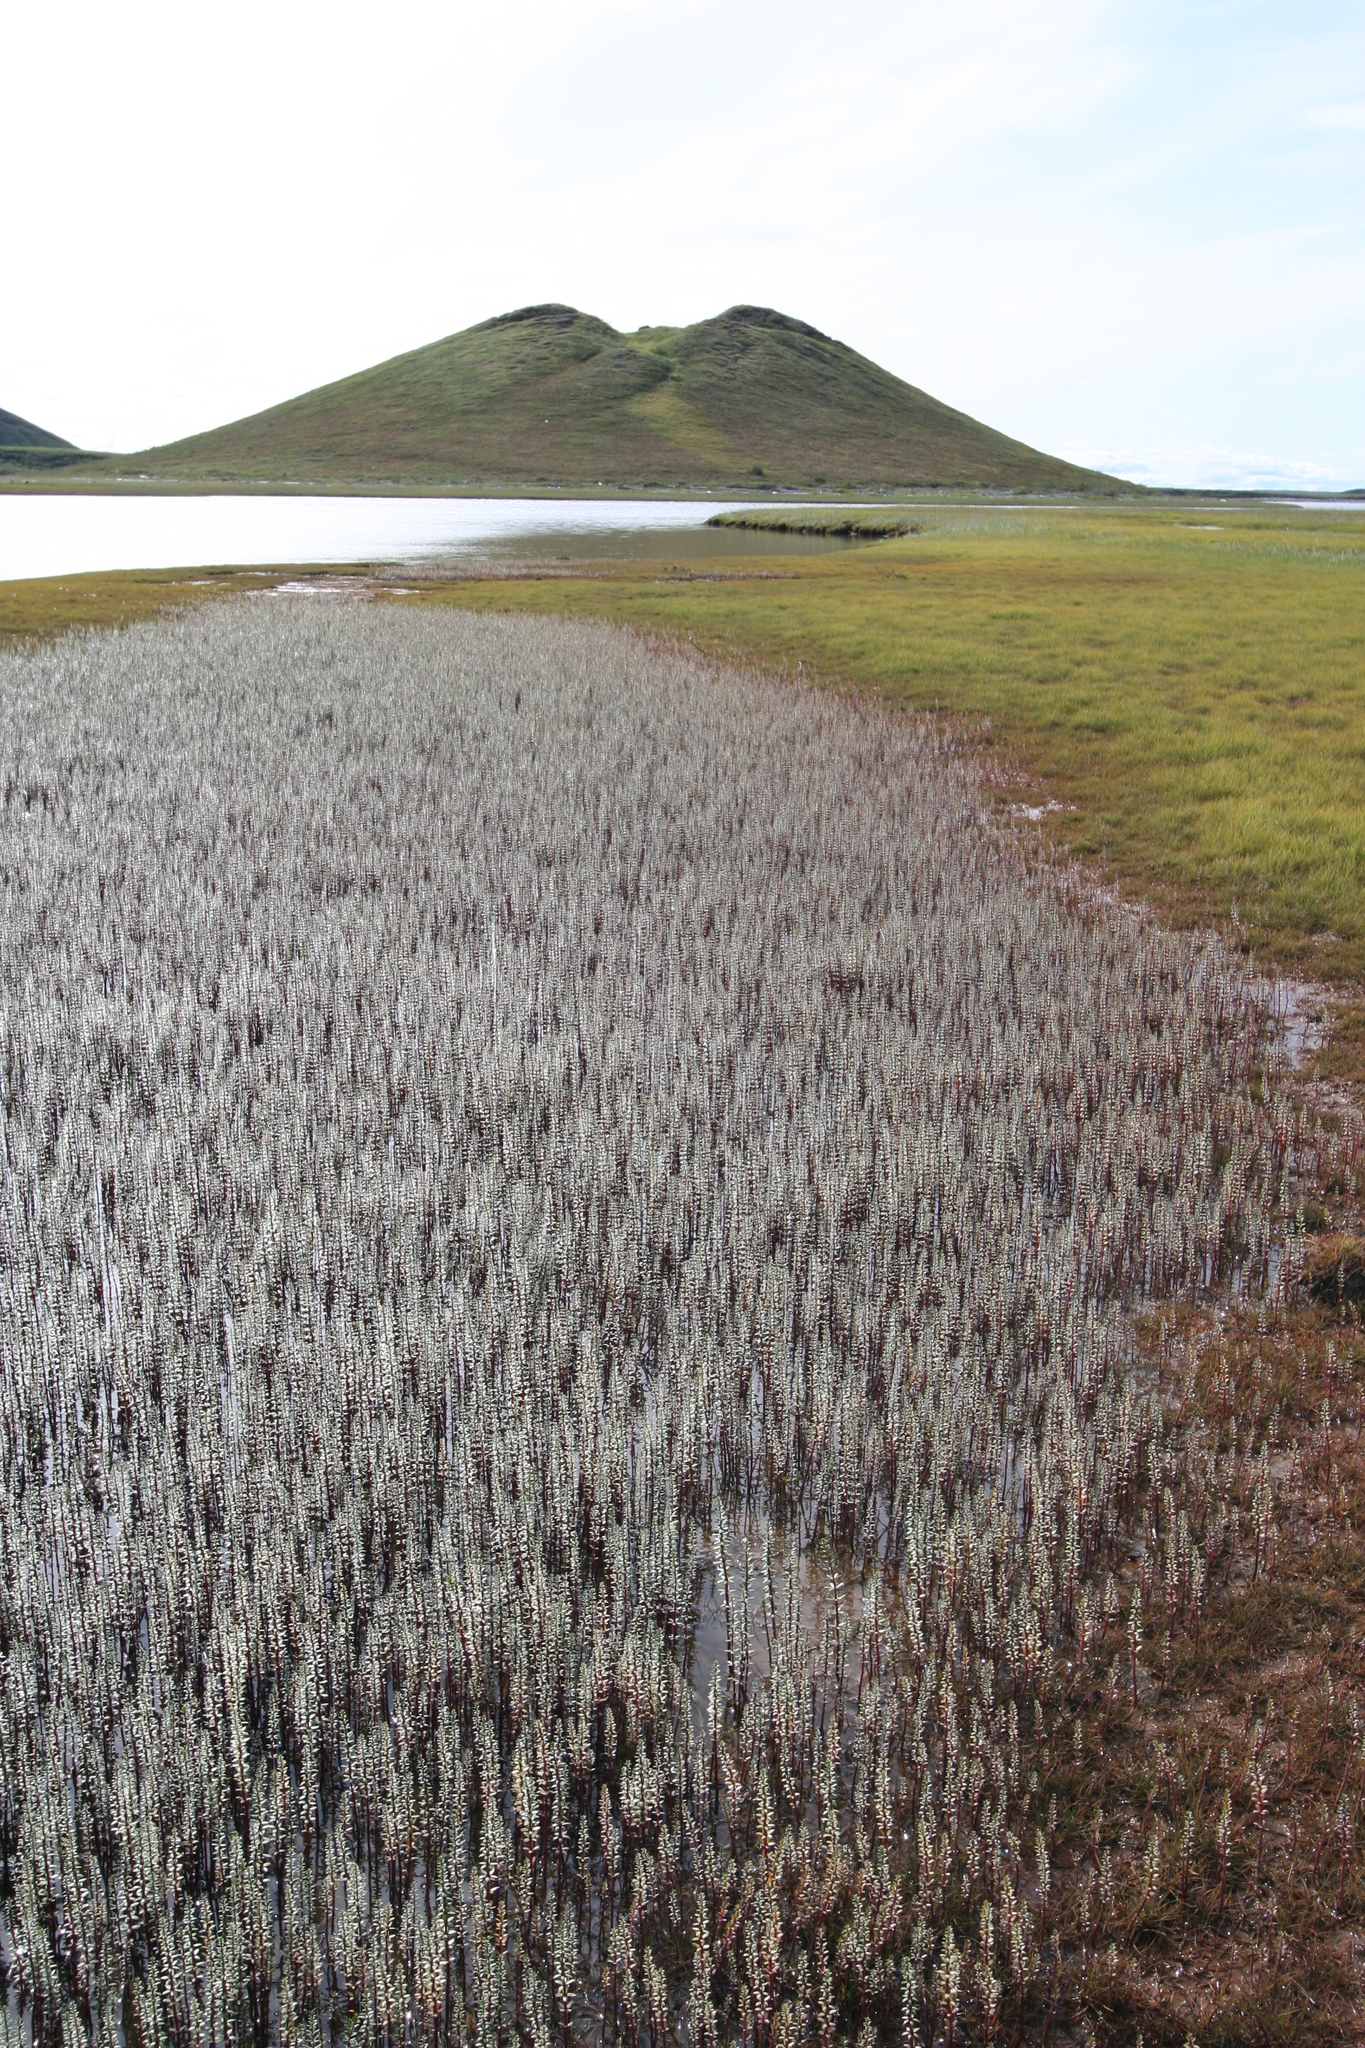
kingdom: Plantae
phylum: Tracheophyta
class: Magnoliopsida
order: Lamiales
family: Plantaginaceae
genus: Hippuris
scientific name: Hippuris lanceolata
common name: Lance-leaved mare's-tail
